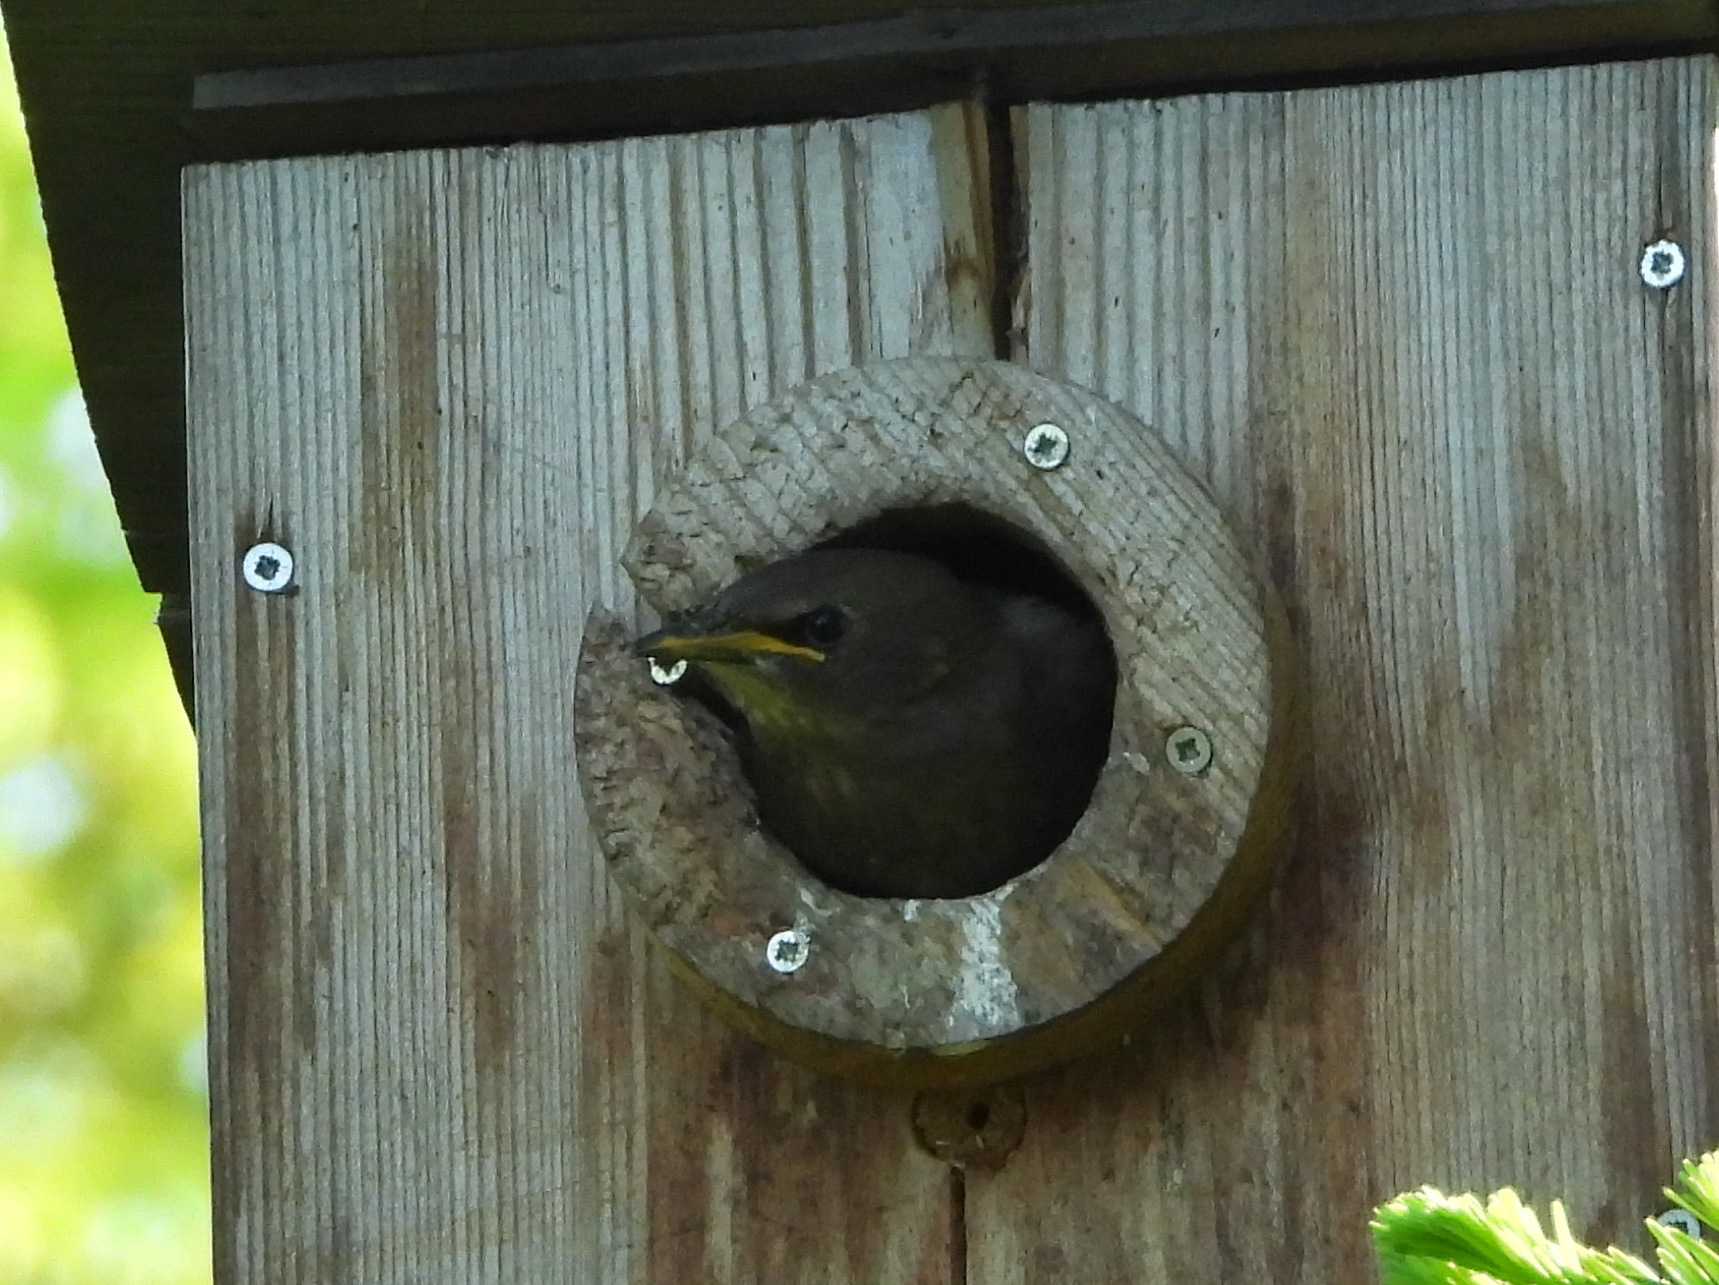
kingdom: Animalia
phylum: Chordata
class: Aves
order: Passeriformes
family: Sturnidae
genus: Sturnus
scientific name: Sturnus vulgaris
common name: Common starling
